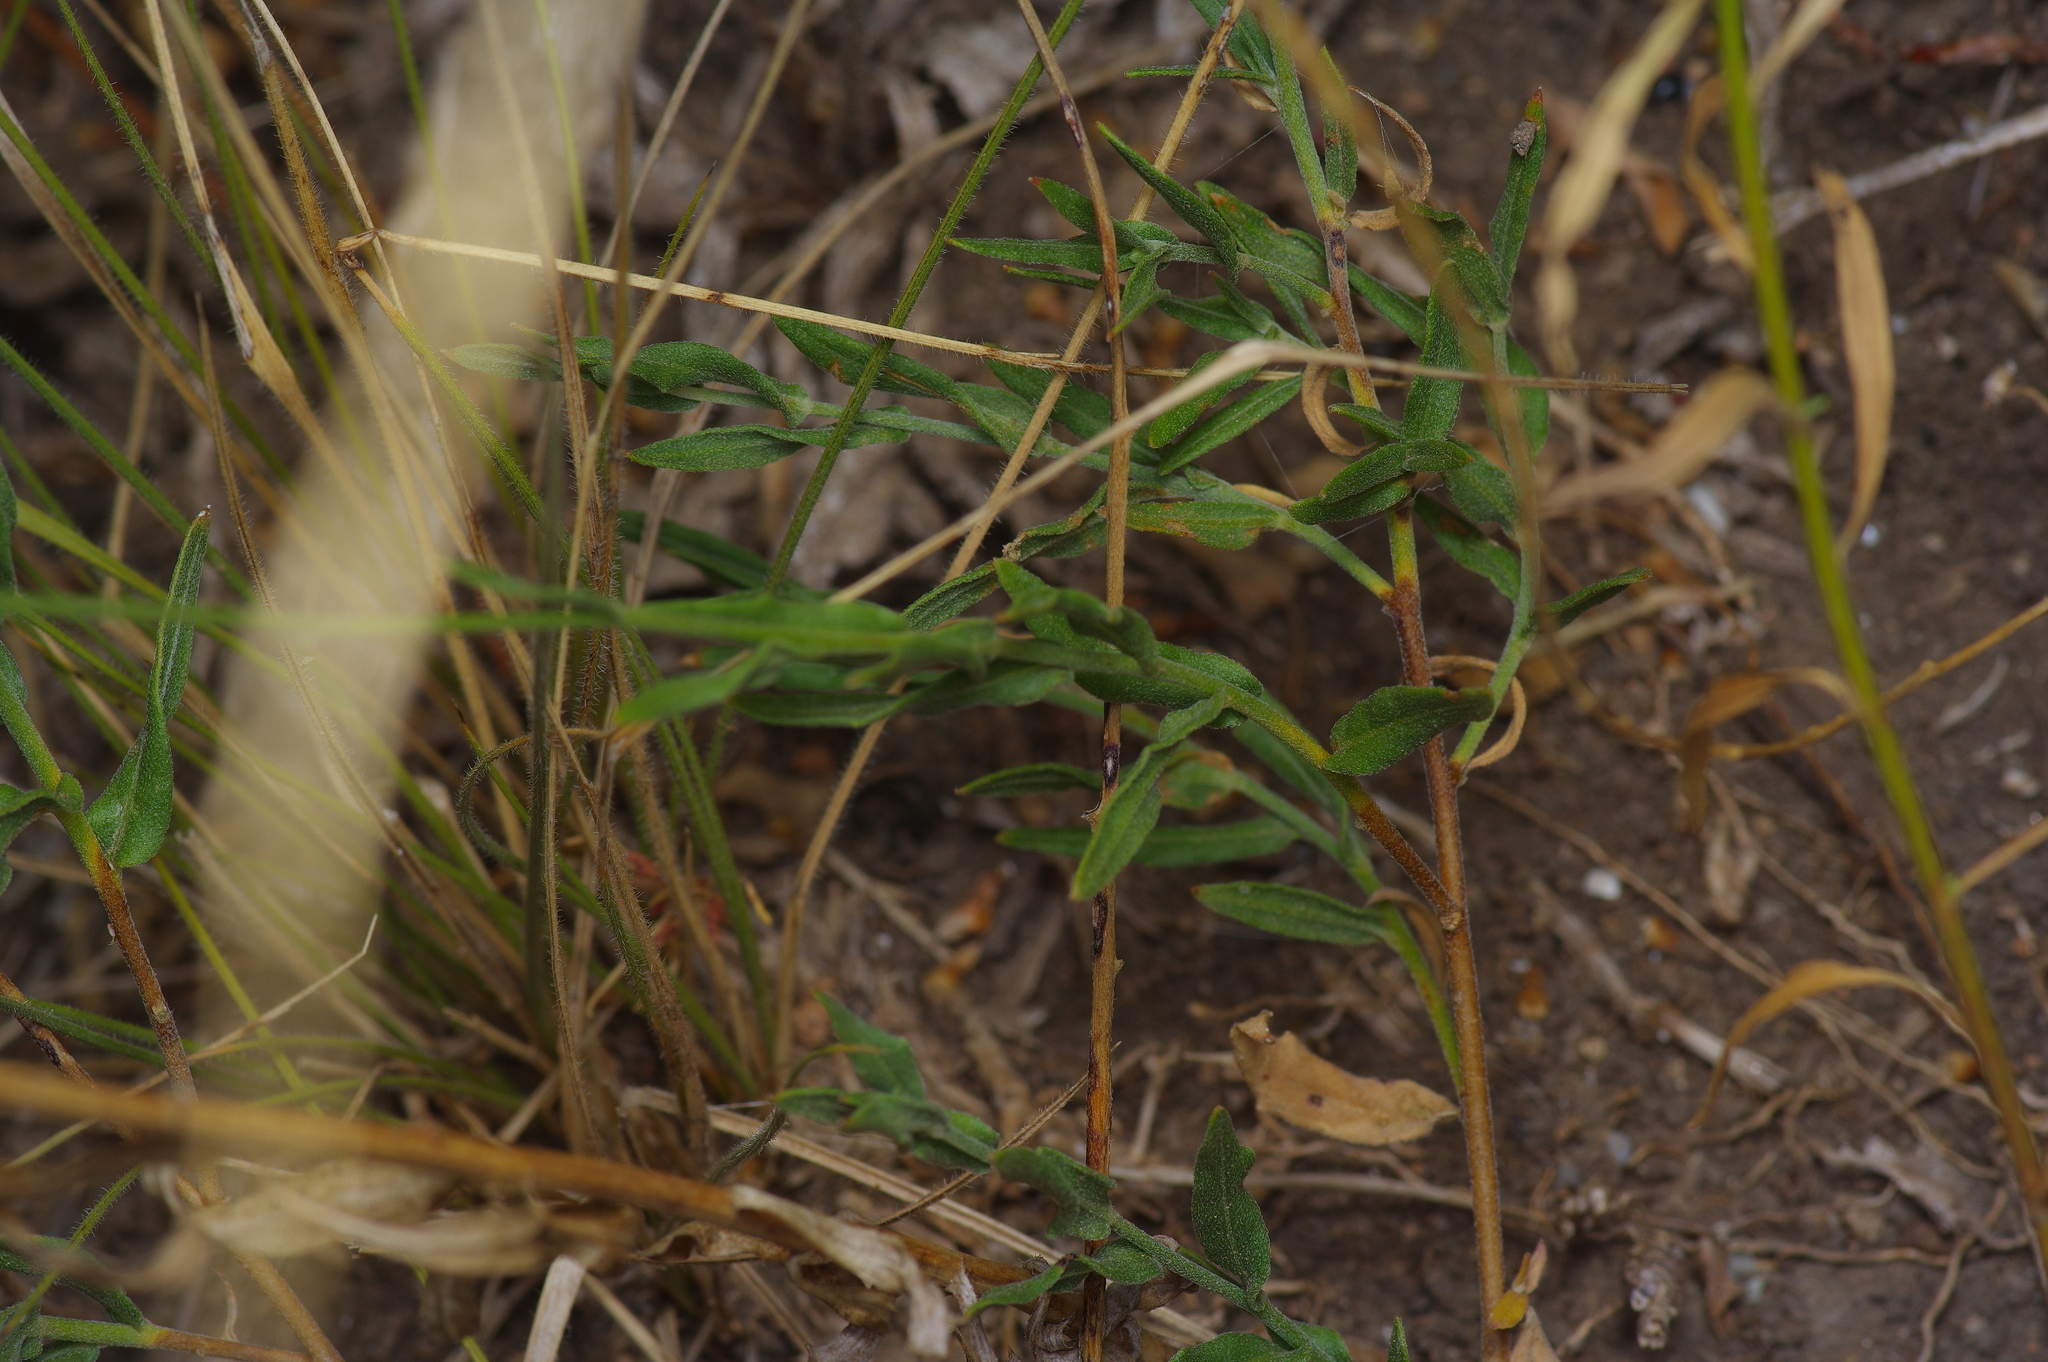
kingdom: Plantae
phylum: Tracheophyta
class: Magnoliopsida
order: Myrtales
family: Onagraceae
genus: Oenothera
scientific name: Oenothera suffulta
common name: Kisses
